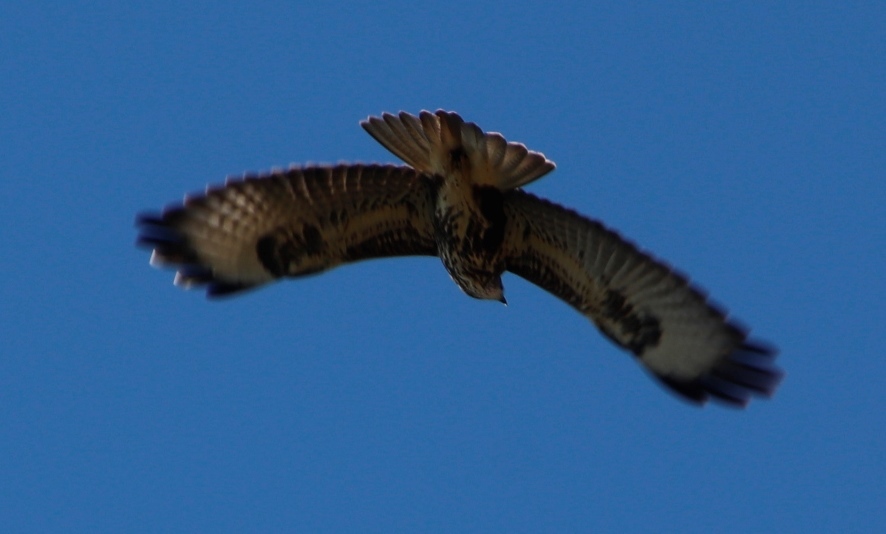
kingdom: Animalia
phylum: Chordata
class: Aves
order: Accipitriformes
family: Accipitridae
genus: Buteo
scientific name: Buteo buteo
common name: Common buzzard
